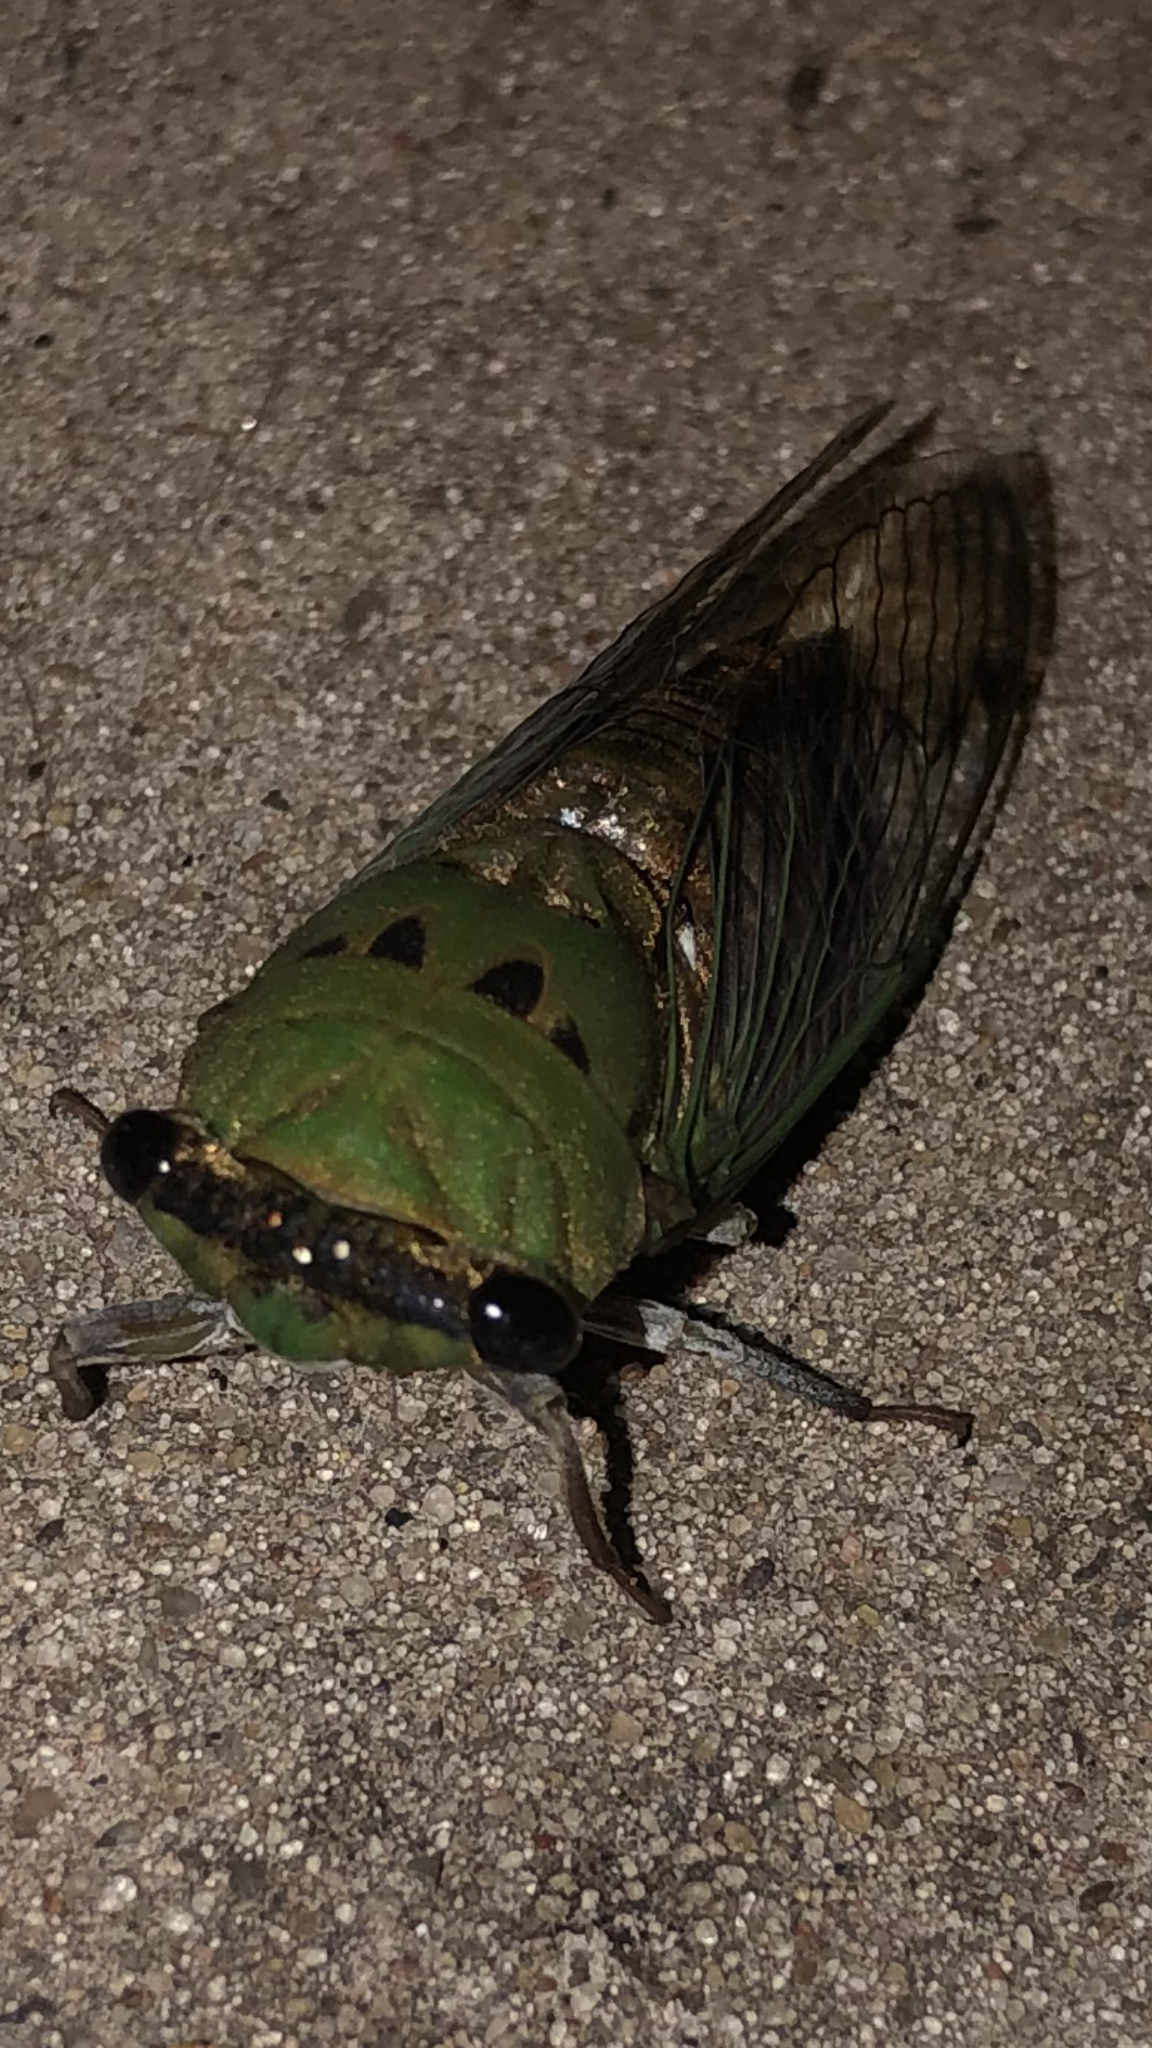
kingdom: Animalia
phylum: Arthropoda
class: Insecta
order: Hemiptera
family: Cicadidae
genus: Neotibicen
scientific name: Neotibicen superbus
